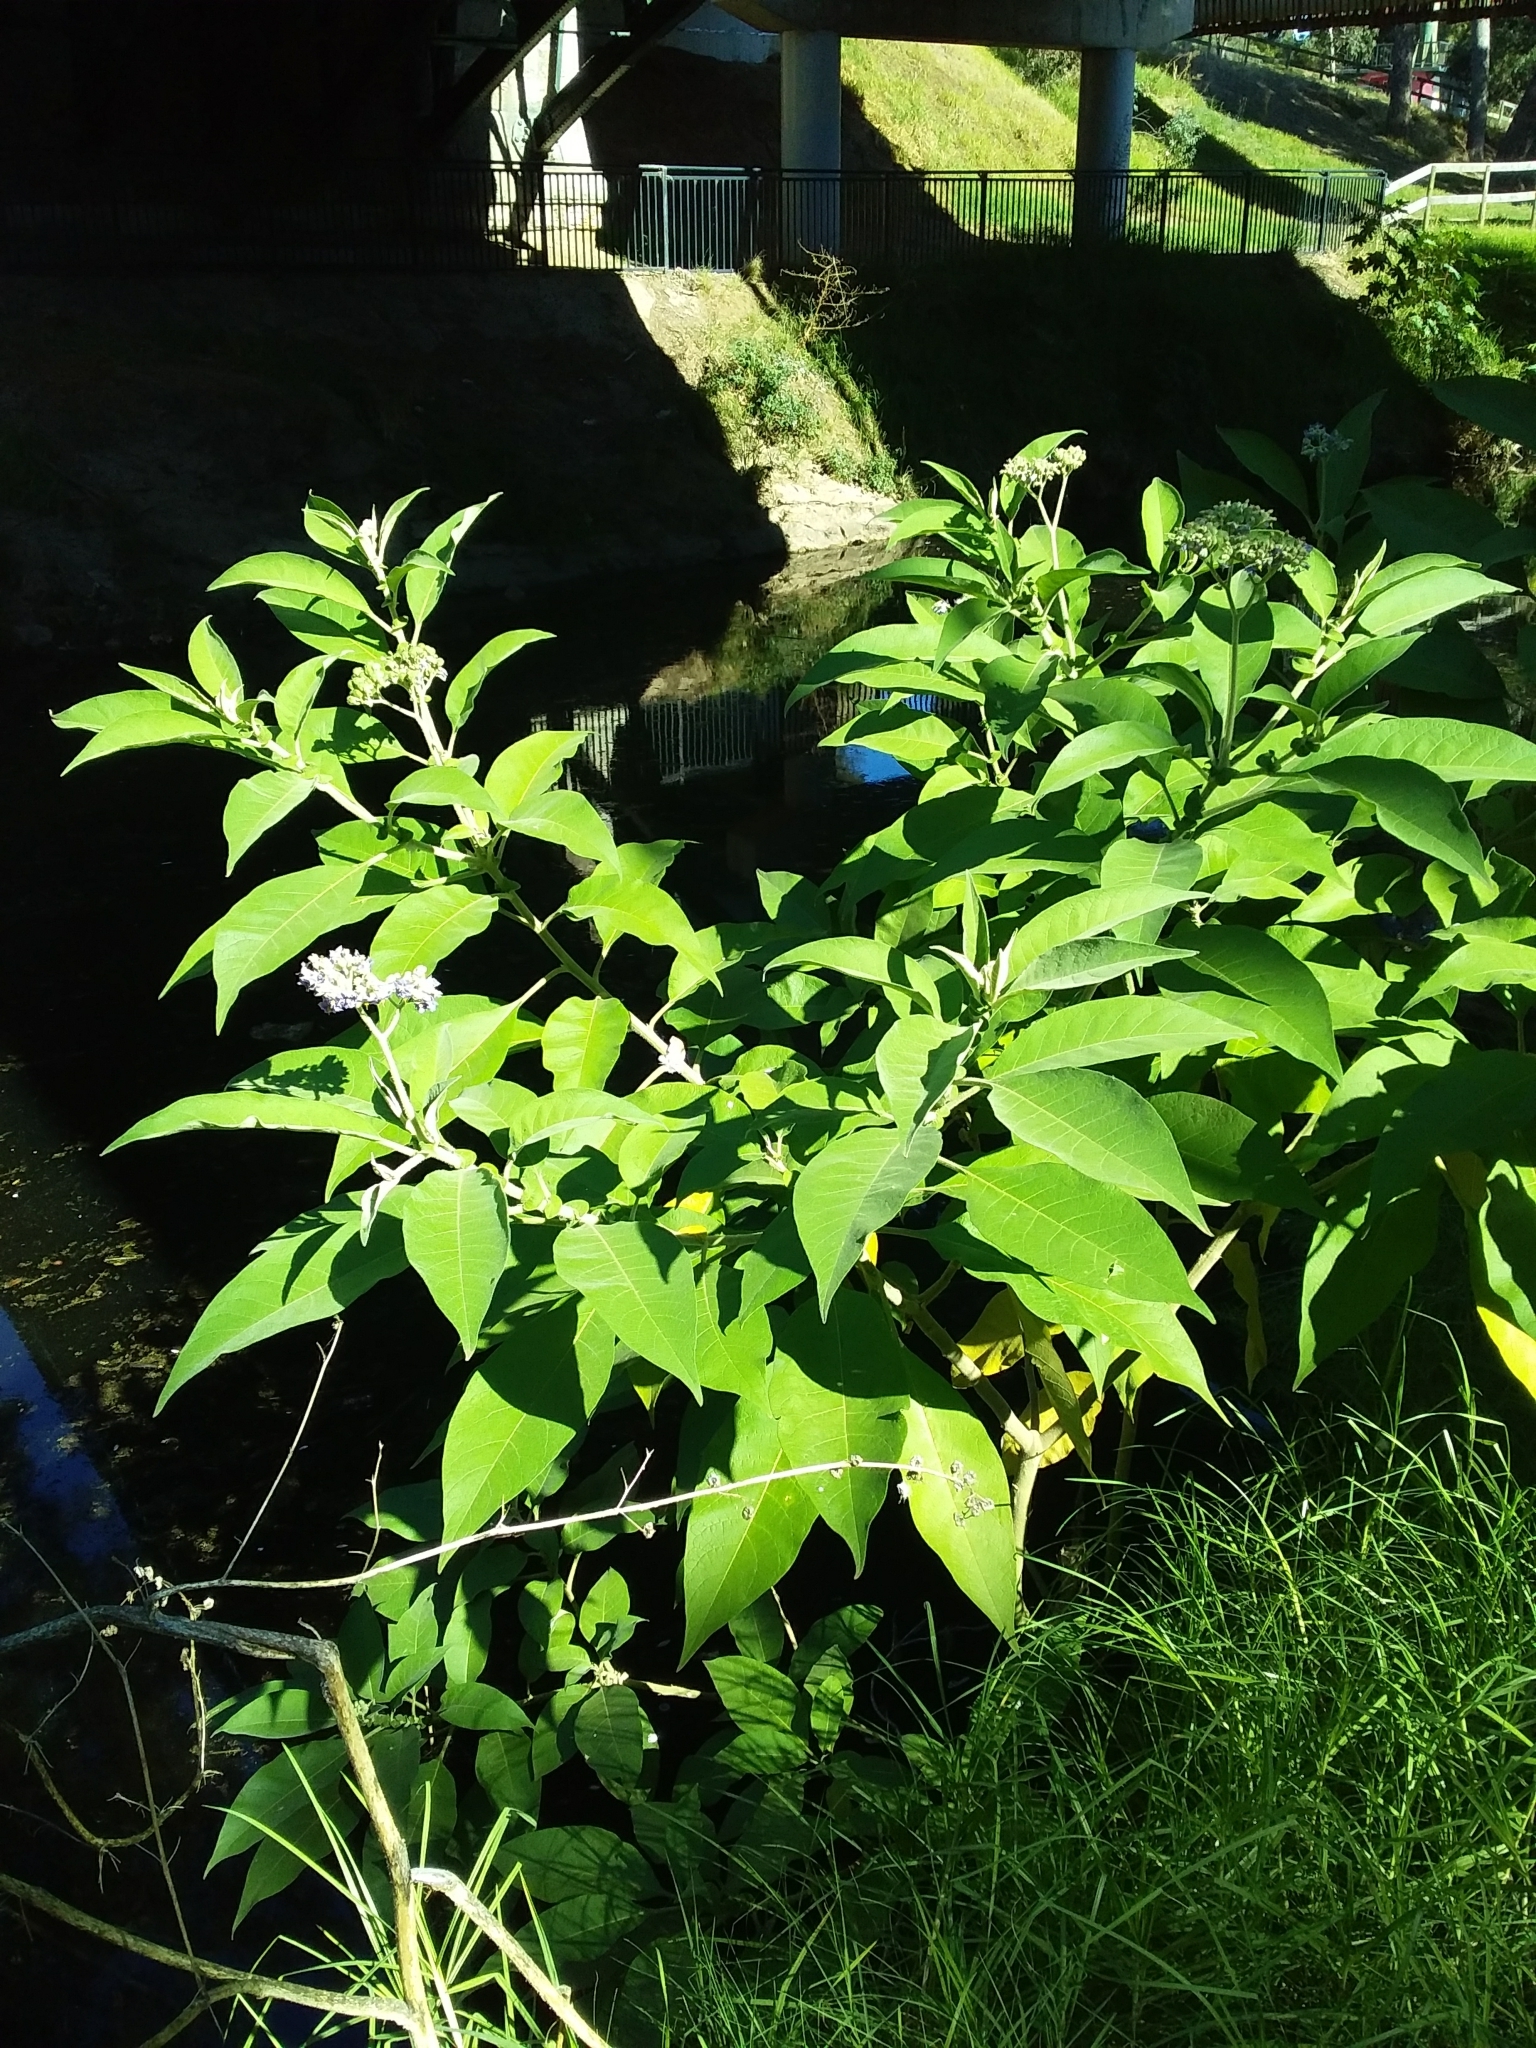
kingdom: Plantae
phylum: Tracheophyta
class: Magnoliopsida
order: Solanales
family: Solanaceae
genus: Solanum
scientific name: Solanum mauritianum
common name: Earleaf nightshade
